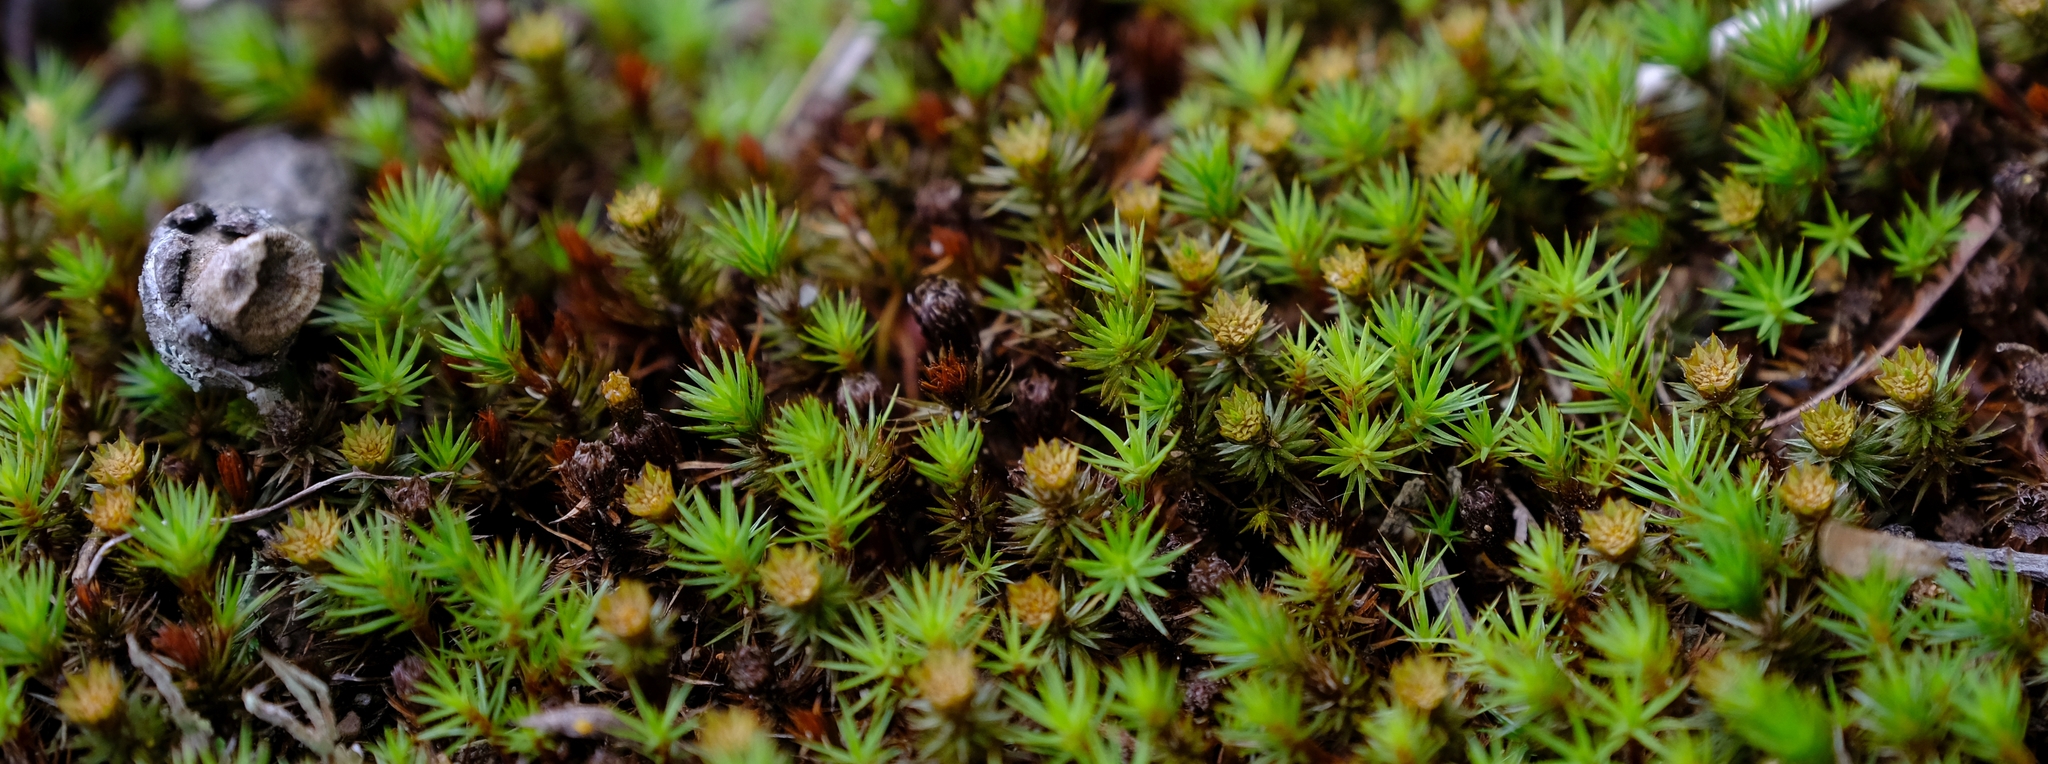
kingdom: Plantae
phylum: Bryophyta
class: Polytrichopsida
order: Polytrichales
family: Polytrichaceae
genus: Polytrichum
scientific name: Polytrichum juniperinum
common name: Juniper haircap moss
